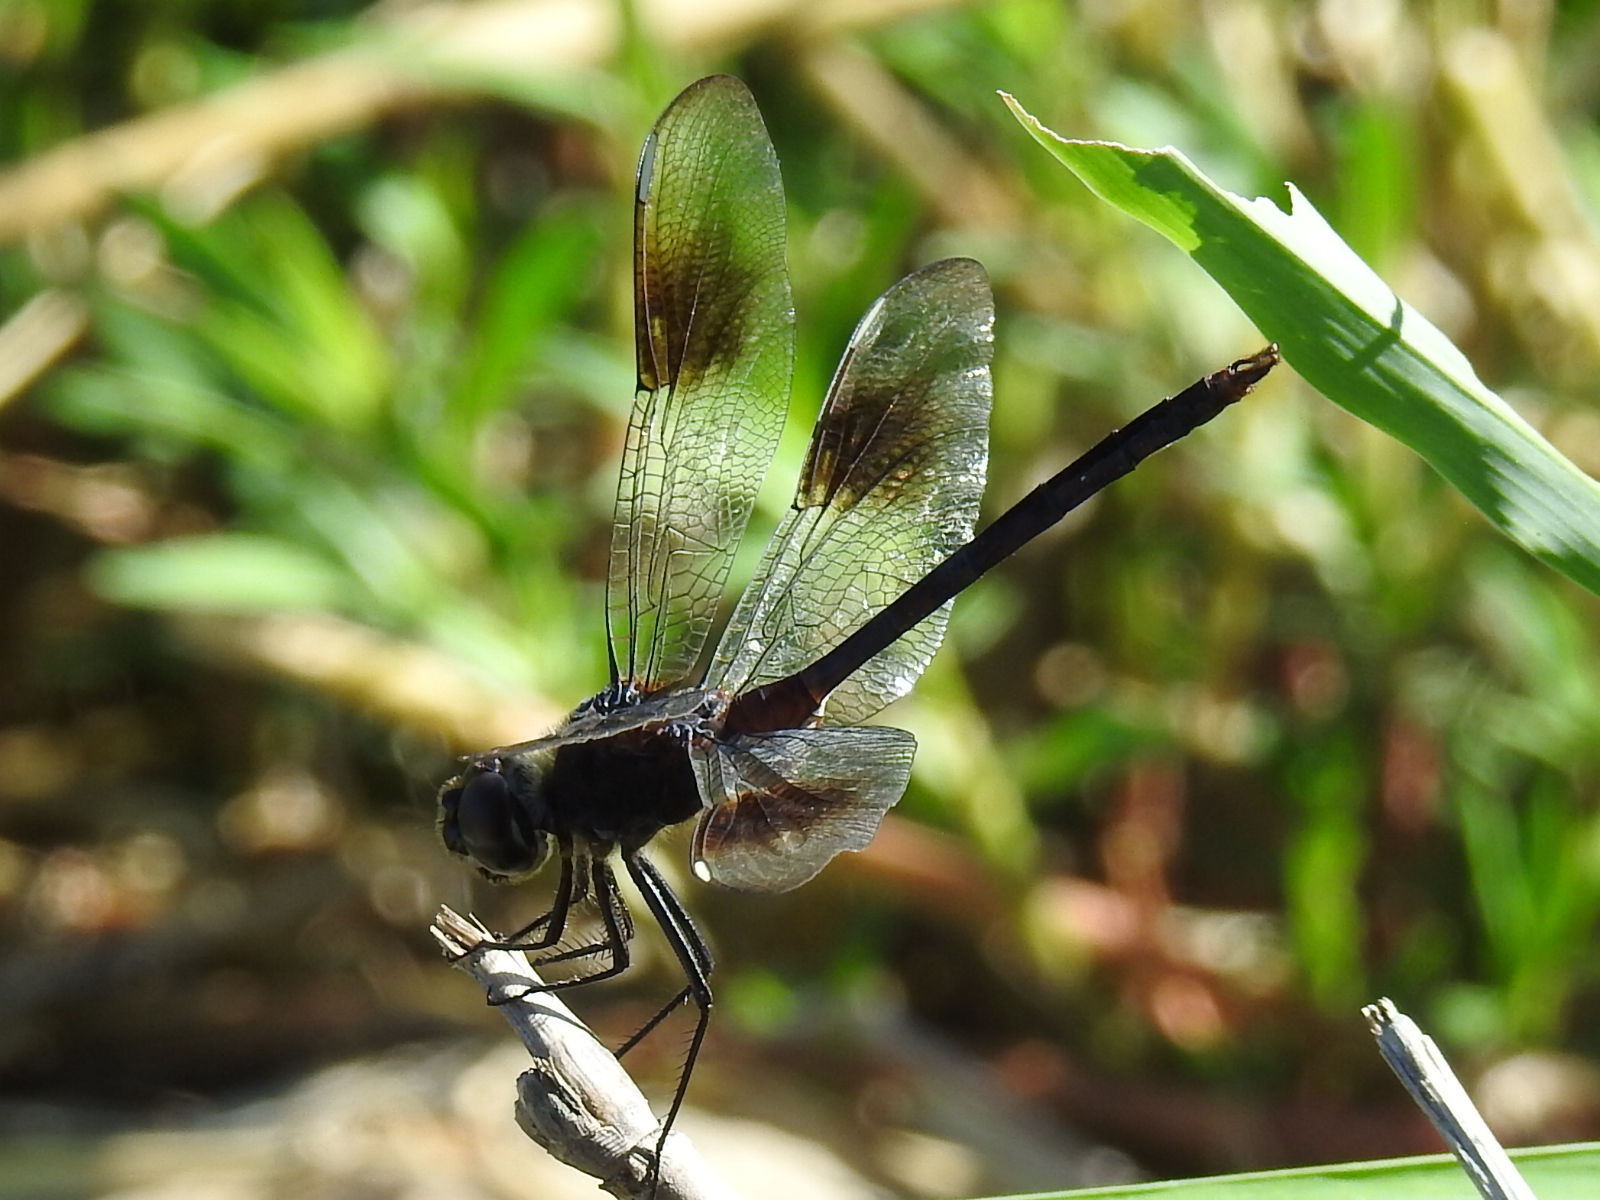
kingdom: Animalia
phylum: Arthropoda
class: Insecta
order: Odonata
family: Libellulidae
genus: Brachymesia
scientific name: Brachymesia gravida
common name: Four-spotted pennant
